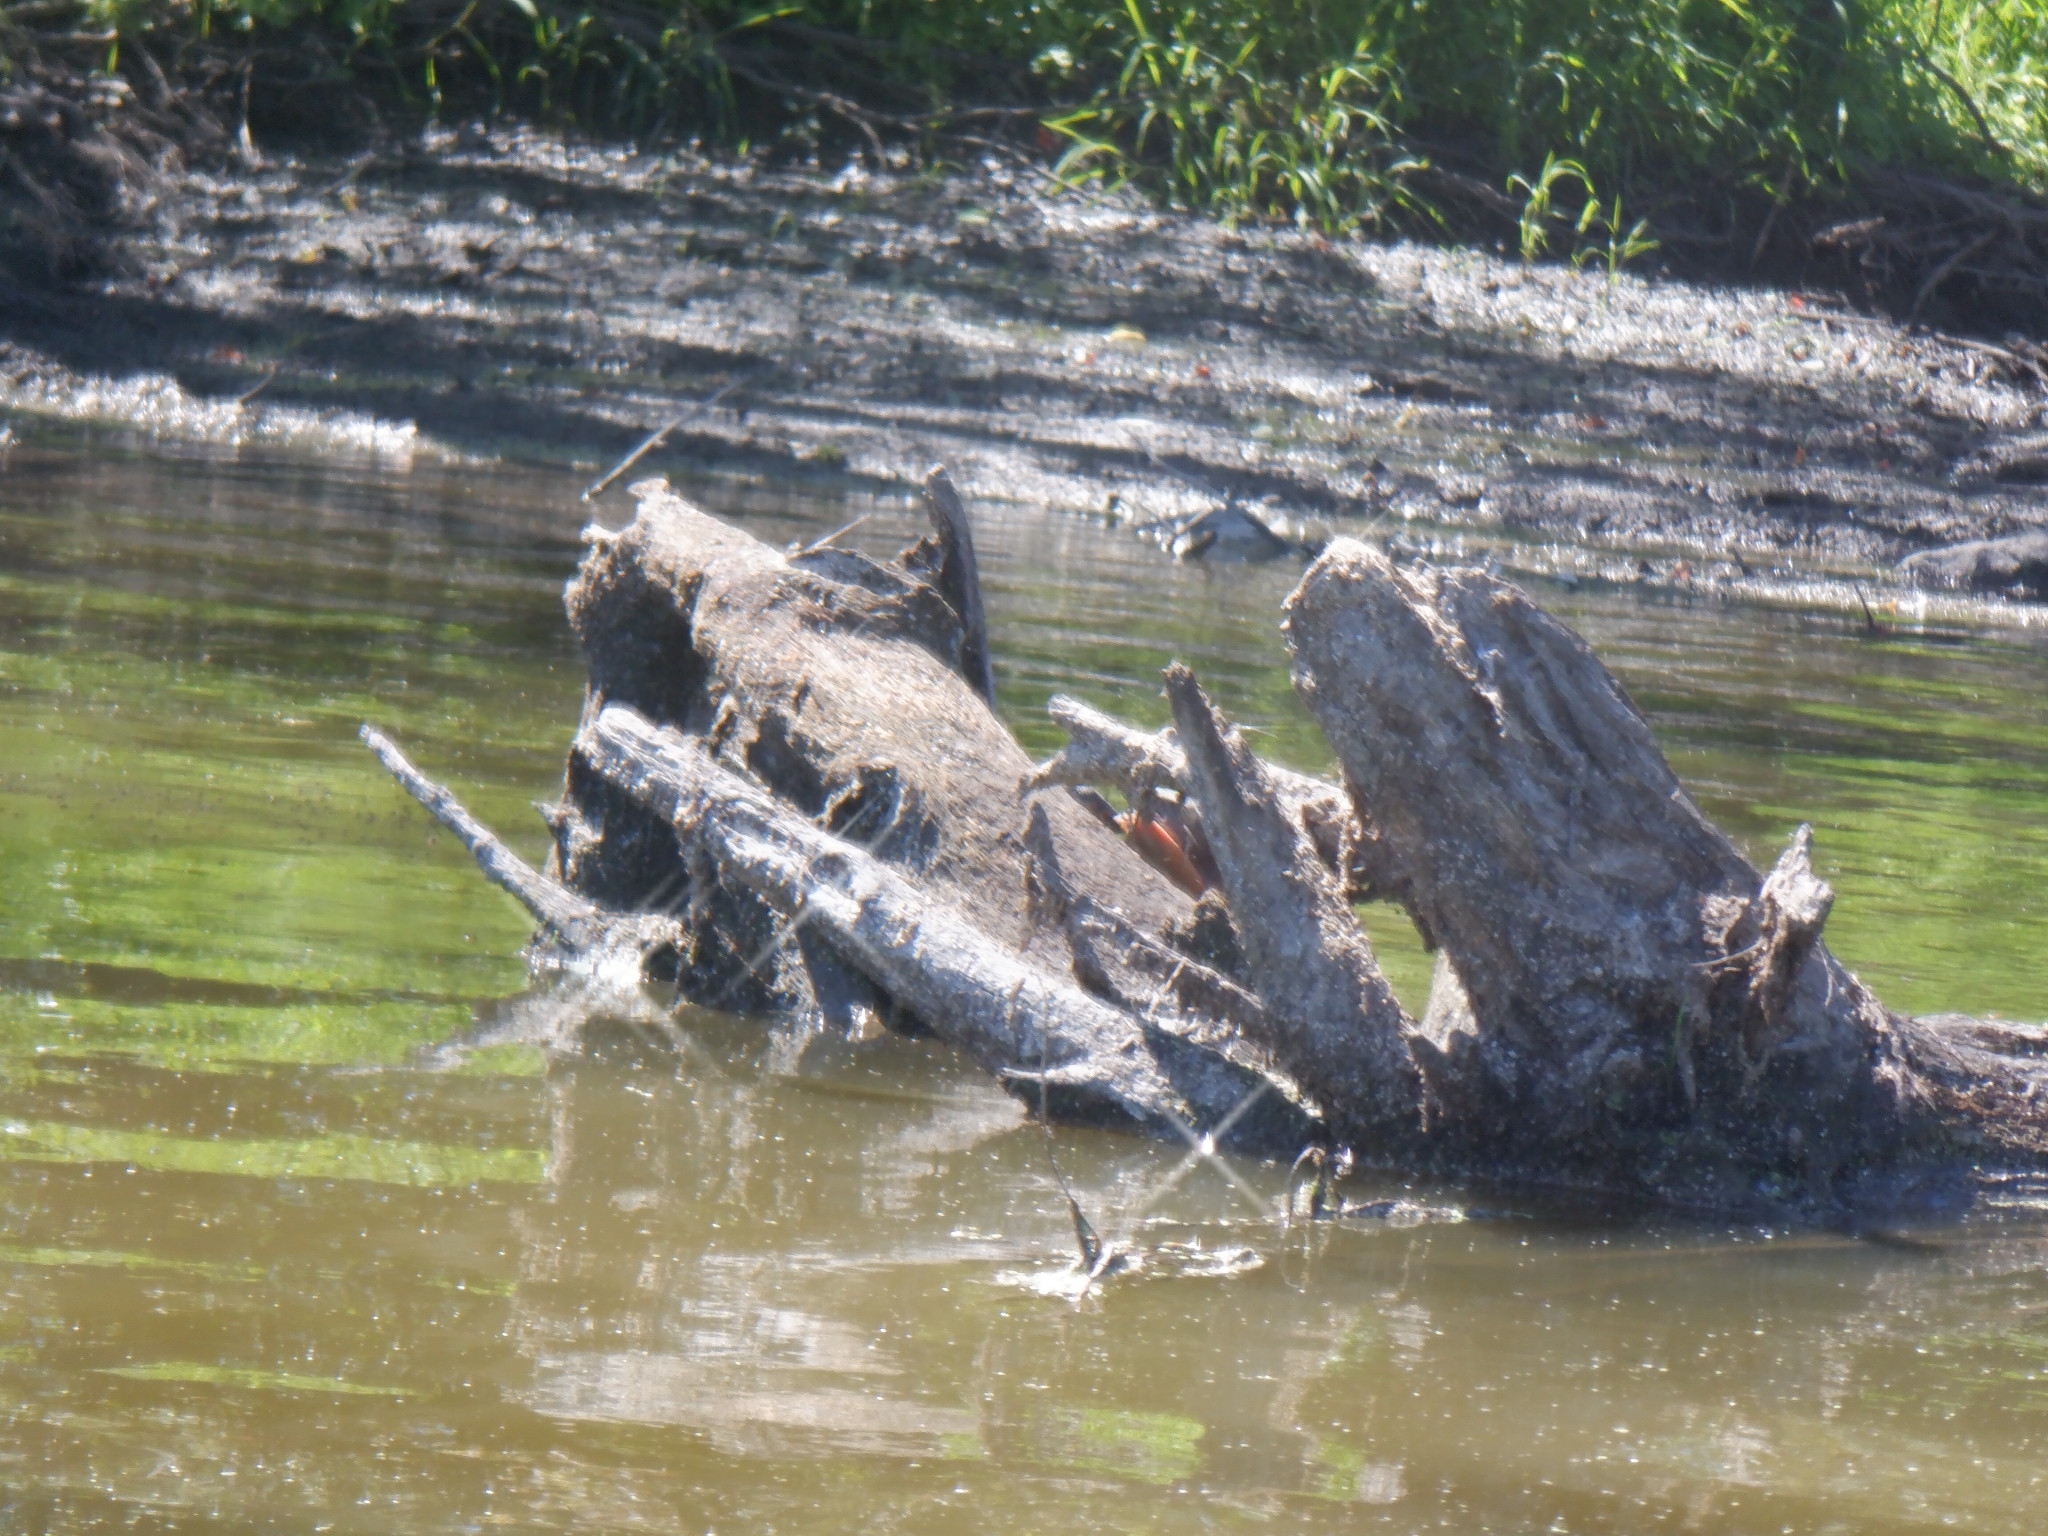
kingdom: Animalia
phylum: Chordata
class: Testudines
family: Emydidae
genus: Chrysemys
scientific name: Chrysemys picta
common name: Painted turtle
